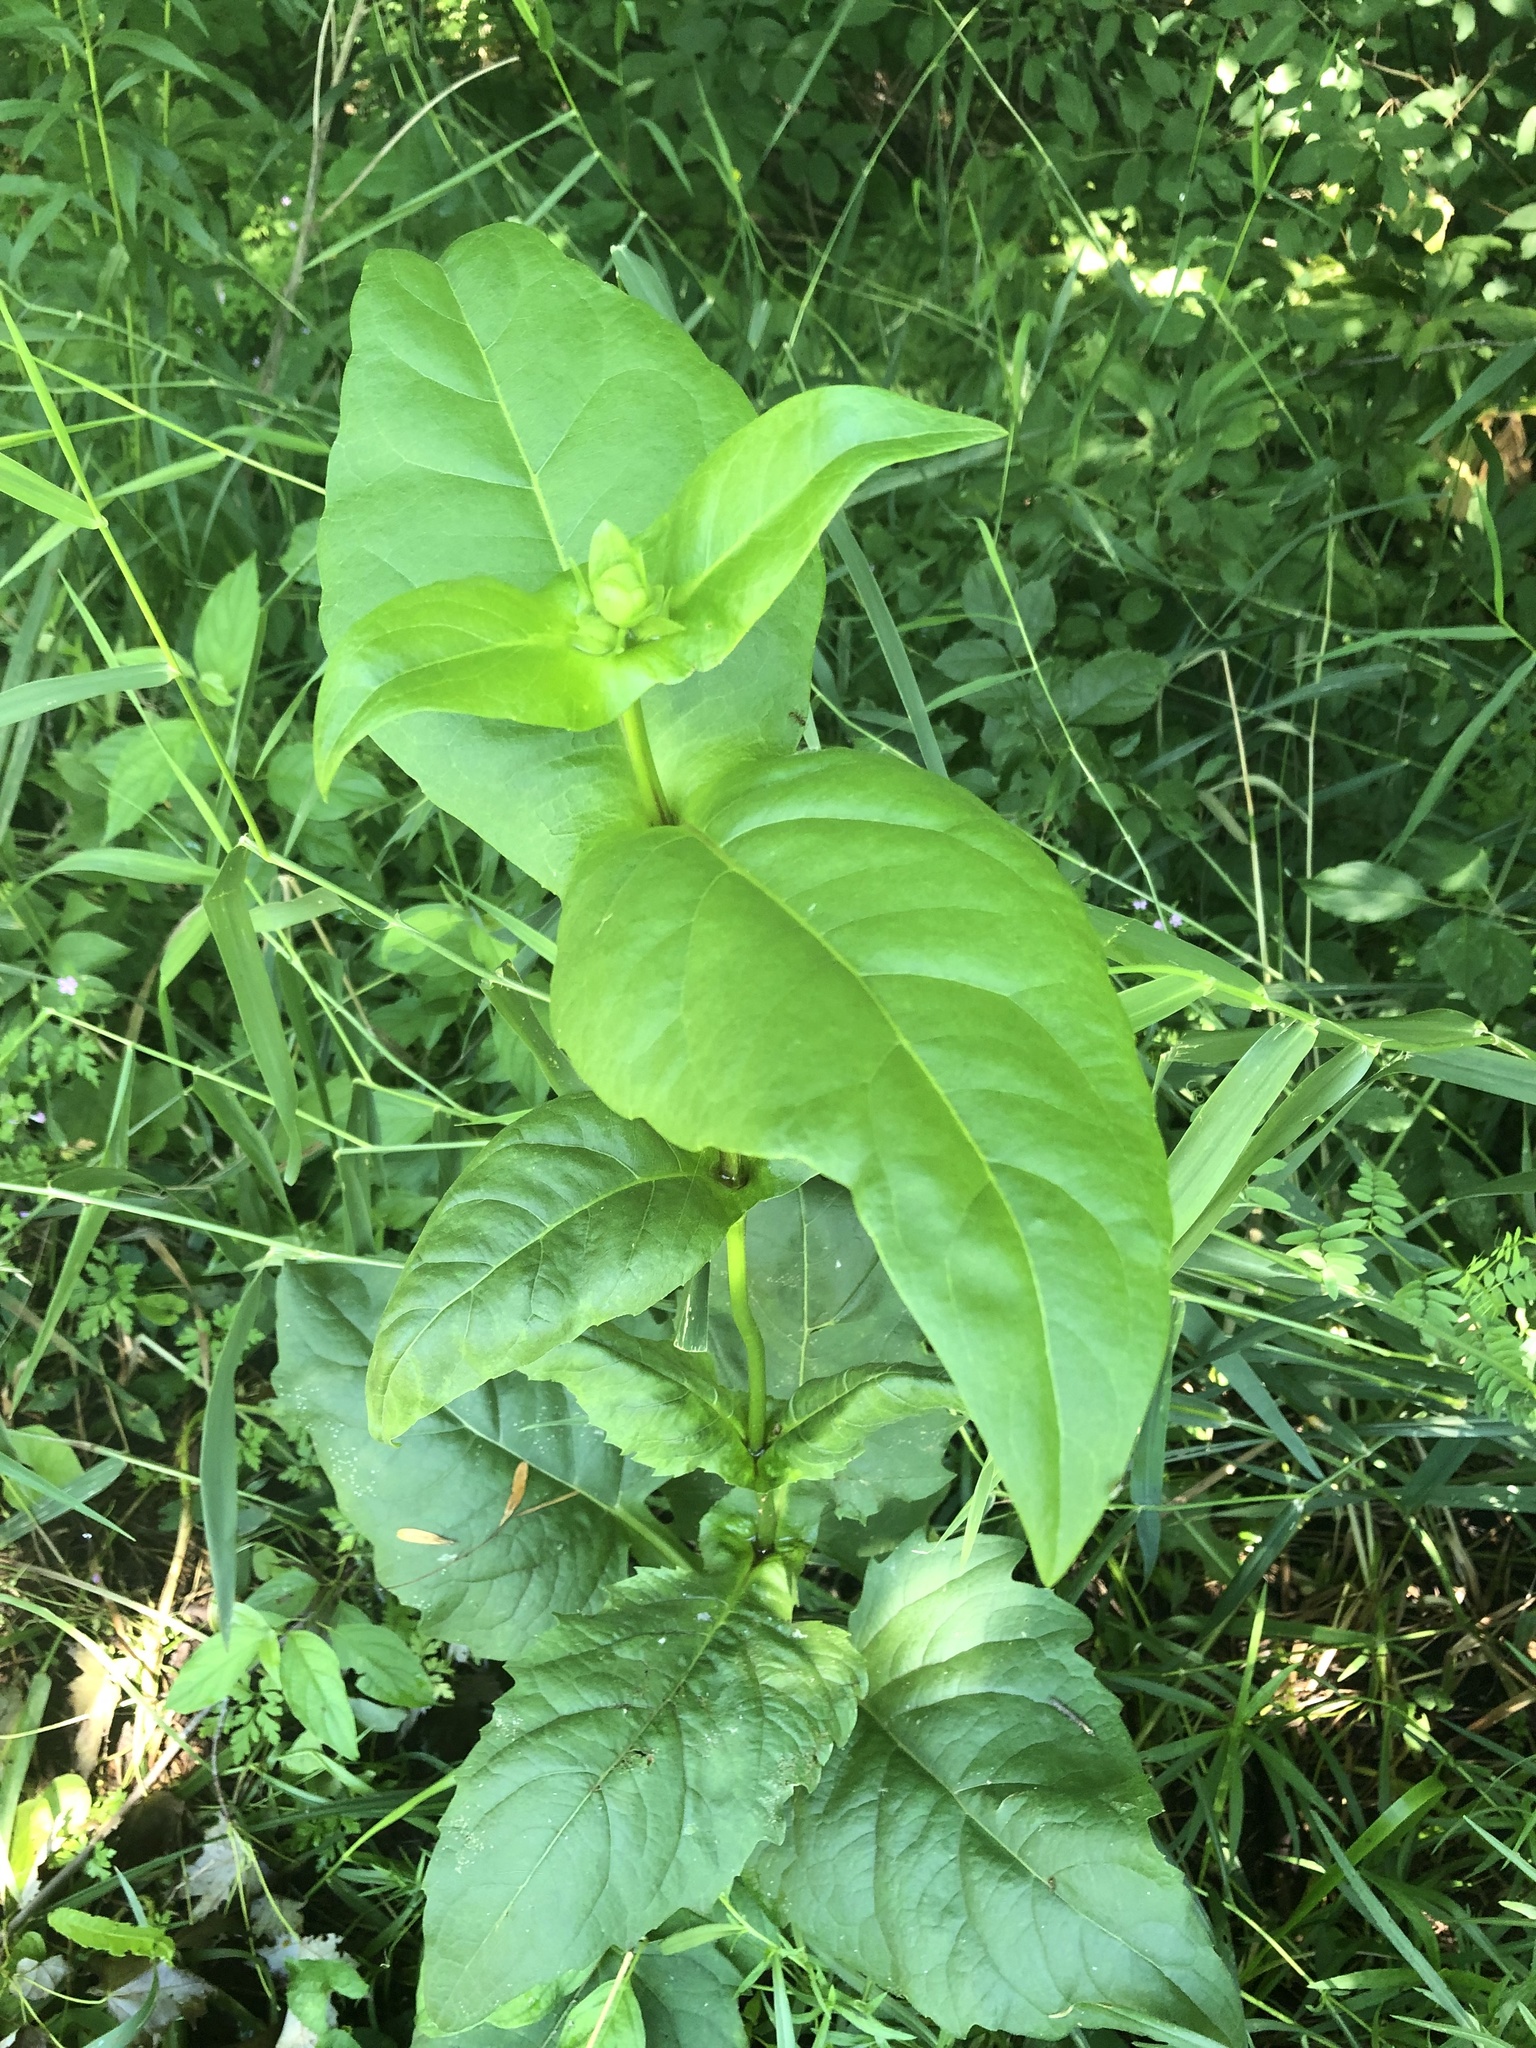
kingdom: Plantae
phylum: Tracheophyta
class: Magnoliopsida
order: Asterales
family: Asteraceae
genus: Silphium
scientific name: Silphium perfoliatum
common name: Cup-plant
